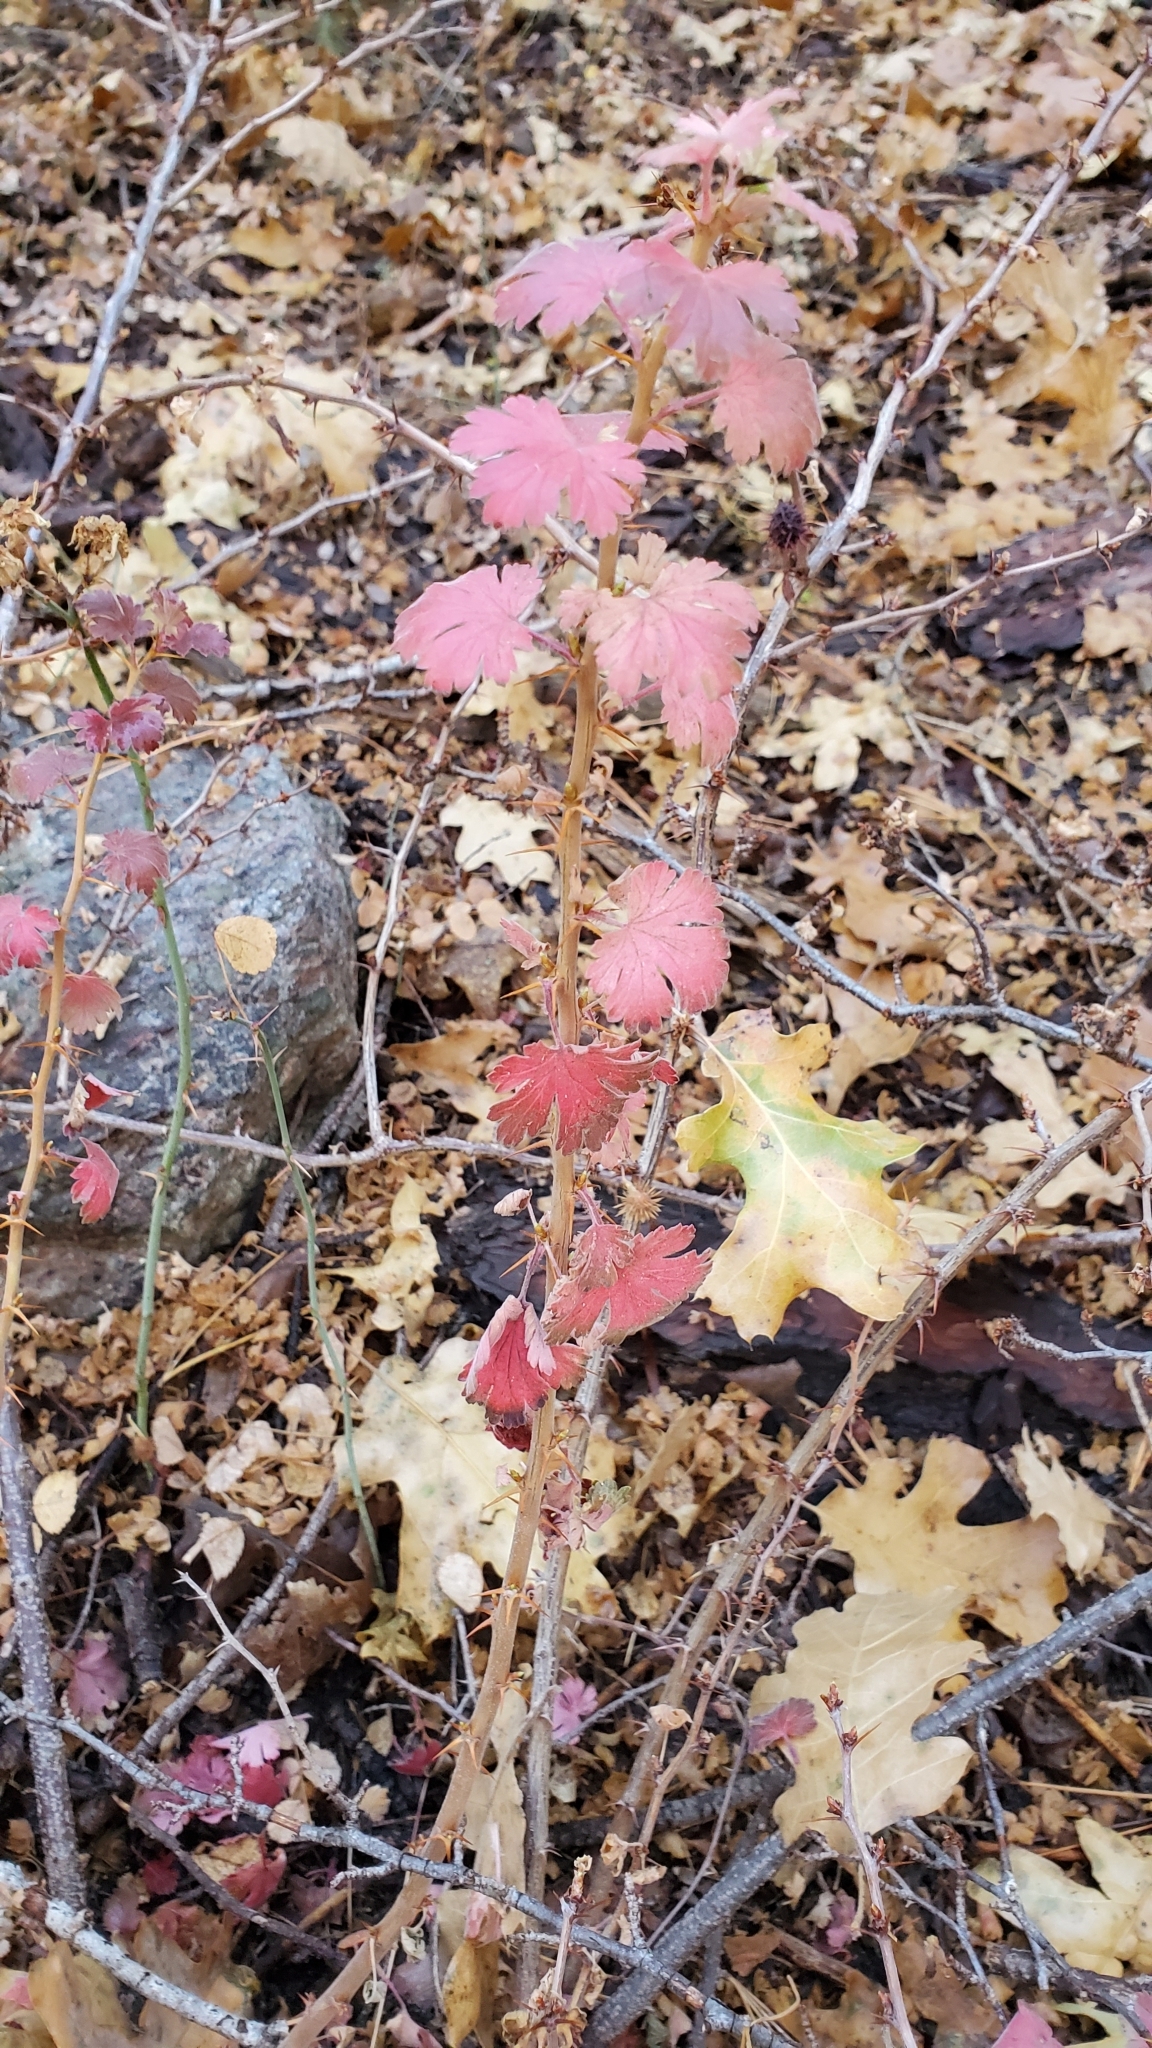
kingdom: Plantae
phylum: Tracheophyta
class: Magnoliopsida
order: Saxifragales
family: Grossulariaceae
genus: Ribes
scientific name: Ribes roezlii
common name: Sierra gooseberry
